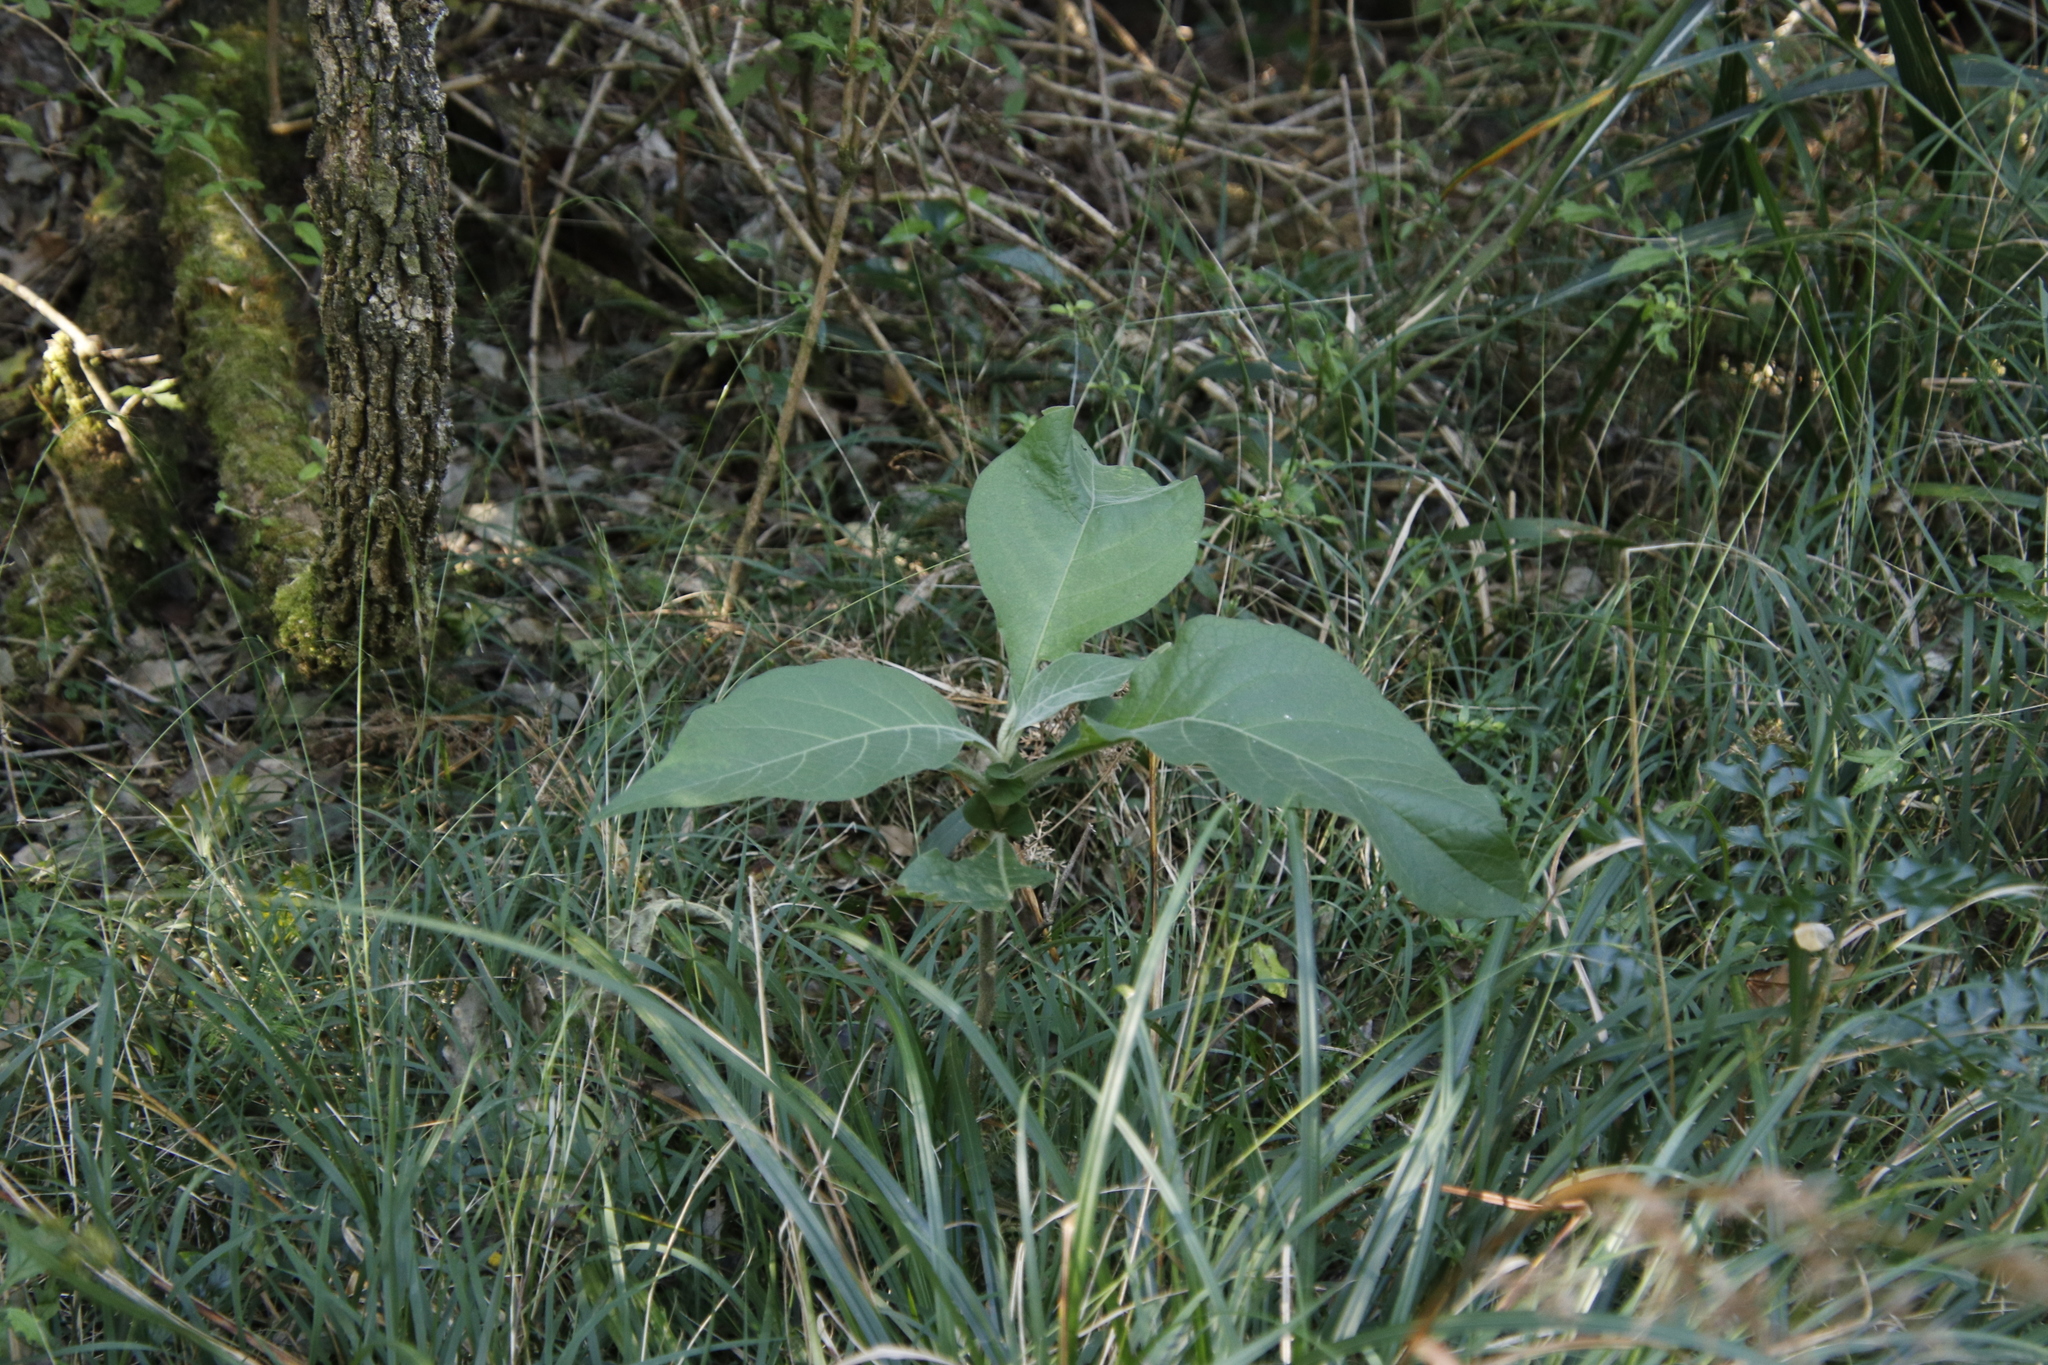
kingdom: Plantae
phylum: Tracheophyta
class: Magnoliopsida
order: Solanales
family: Solanaceae
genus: Solanum
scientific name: Solanum mauritianum
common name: Earleaf nightshade
